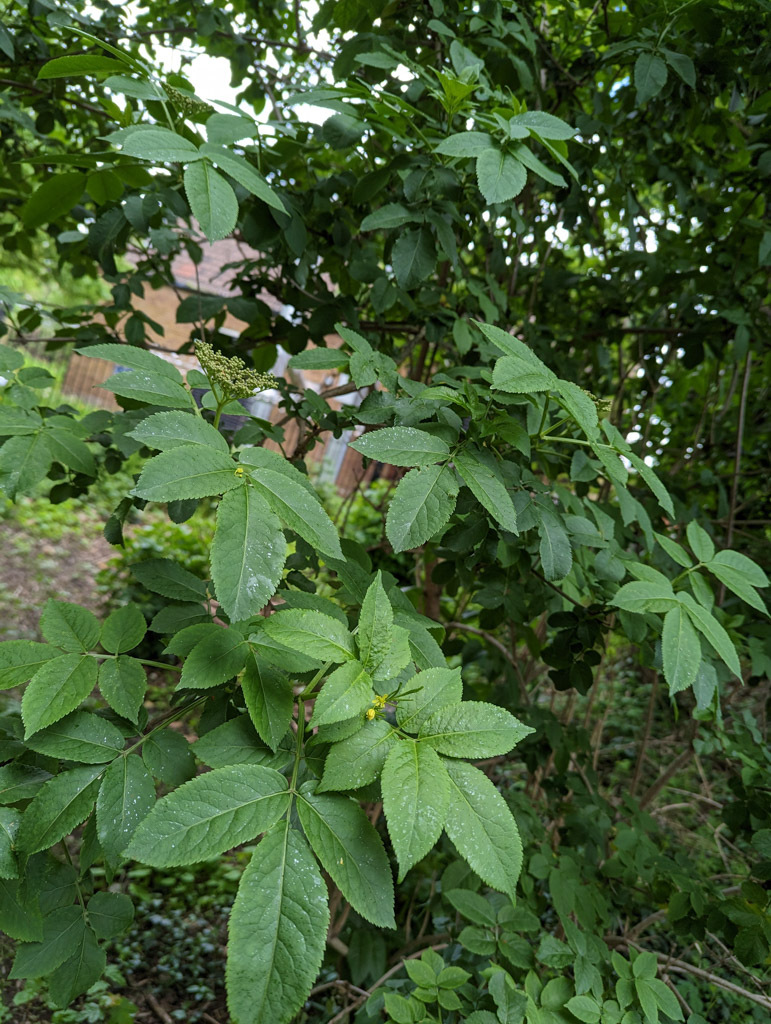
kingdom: Plantae
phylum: Tracheophyta
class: Magnoliopsida
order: Dipsacales
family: Viburnaceae
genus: Sambucus
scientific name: Sambucus nigra
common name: Elder
